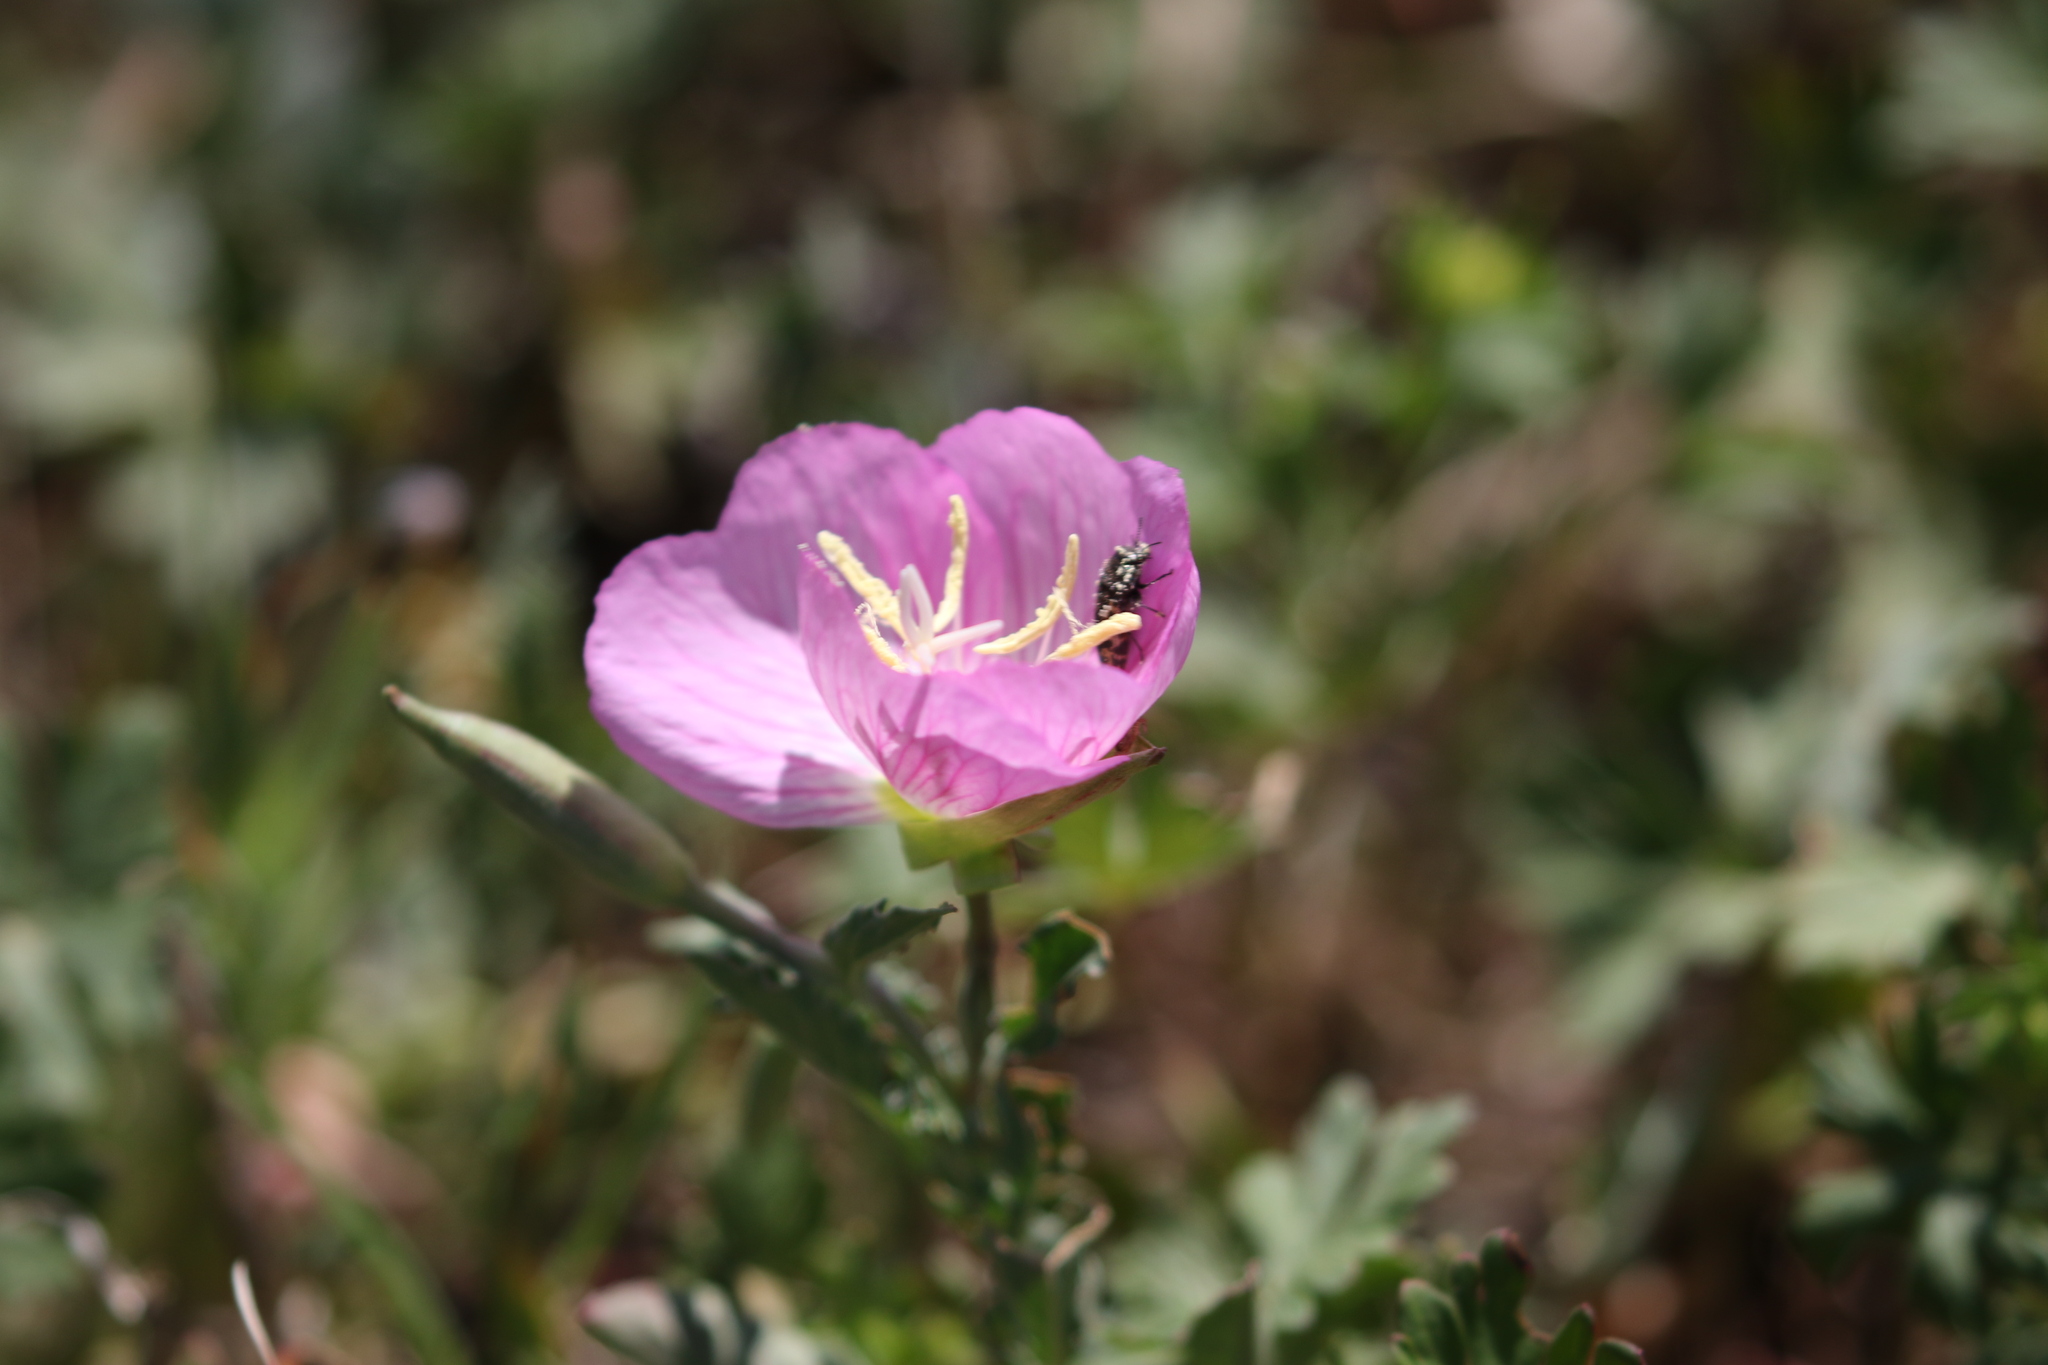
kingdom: Plantae
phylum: Tracheophyta
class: Magnoliopsida
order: Myrtales
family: Onagraceae
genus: Oenothera
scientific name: Oenothera speciosa
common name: White evening-primrose
